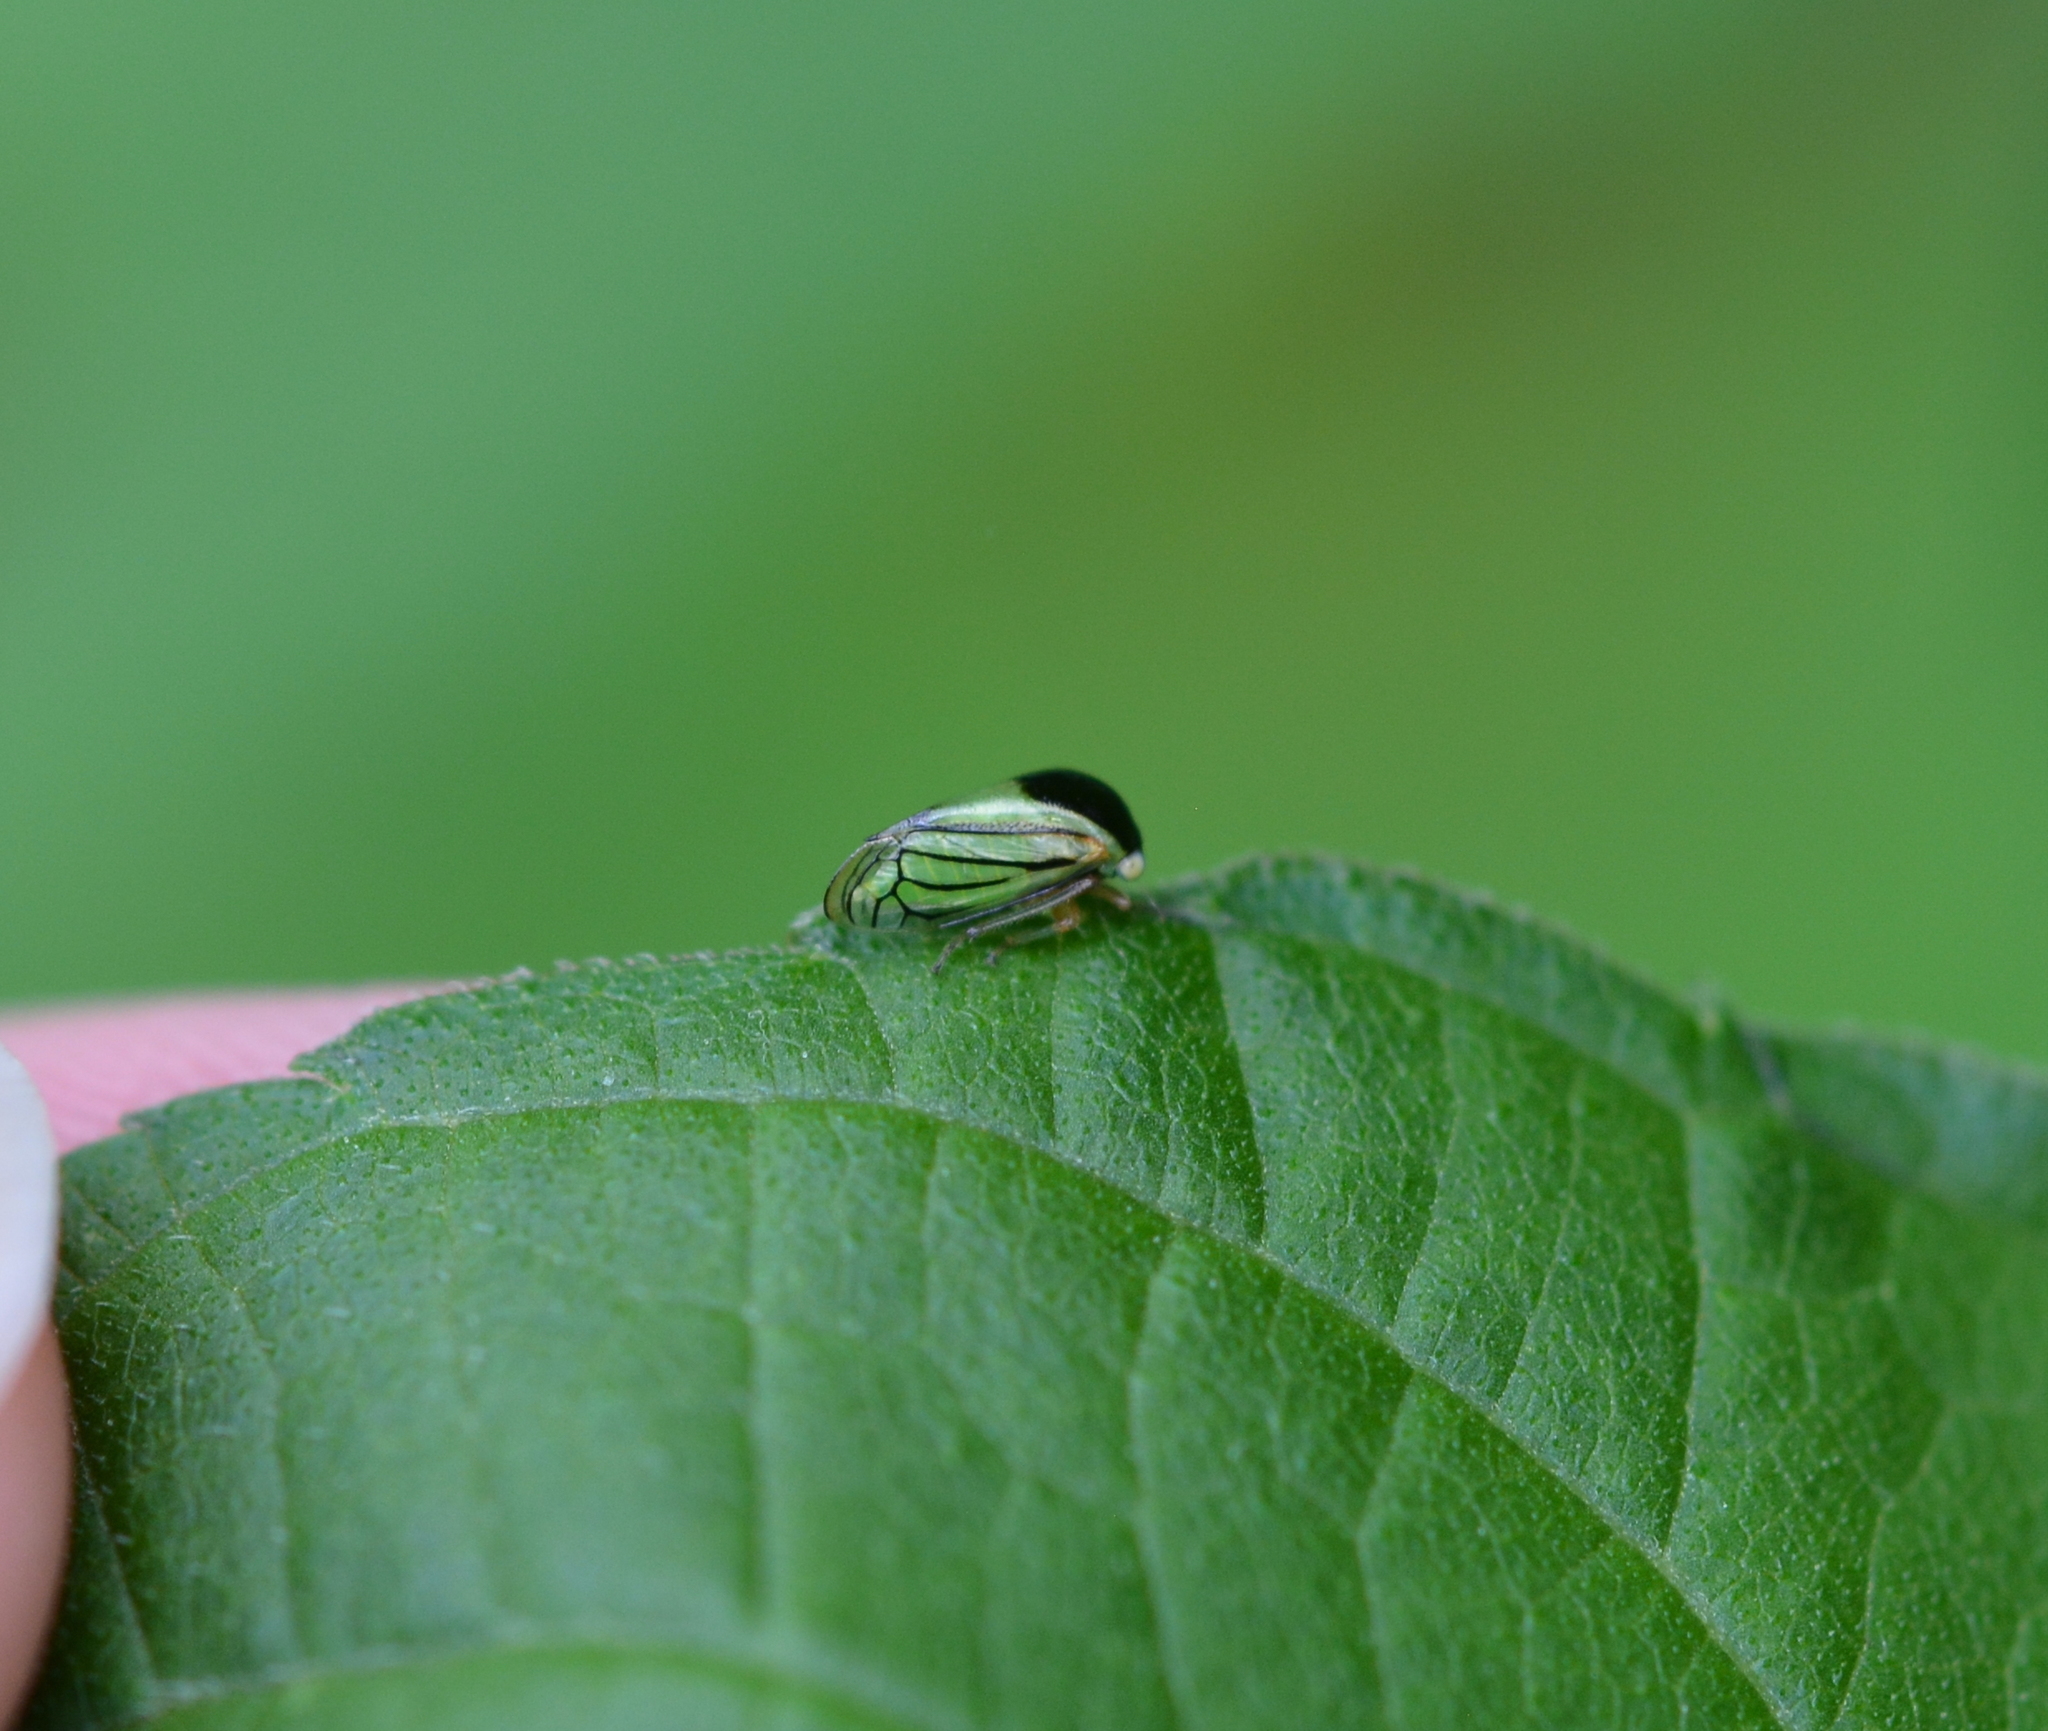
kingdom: Animalia
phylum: Arthropoda
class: Insecta
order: Hemiptera
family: Membracidae
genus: Acutalis
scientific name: Acutalis tartarea
